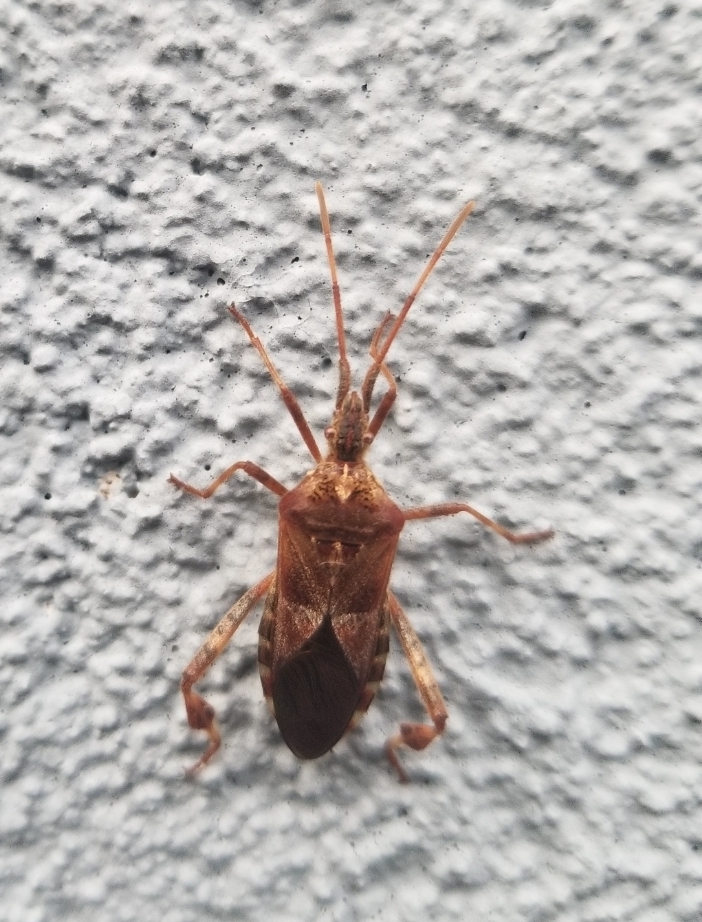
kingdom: Animalia
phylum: Arthropoda
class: Insecta
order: Hemiptera
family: Coreidae
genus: Leptoglossus
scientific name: Leptoglossus occidentalis
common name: Western conifer-seed bug
